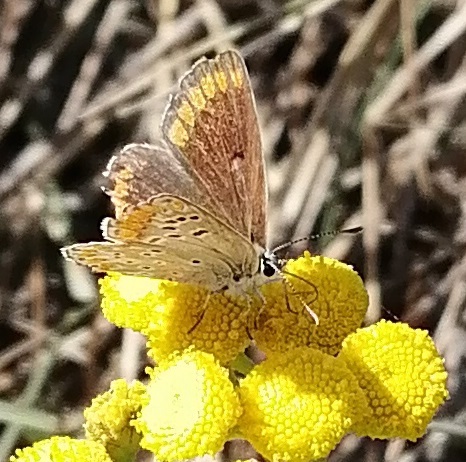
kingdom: Animalia
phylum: Arthropoda
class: Insecta
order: Lepidoptera
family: Lycaenidae
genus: Aricia
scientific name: Aricia agestis
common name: Brown argus
